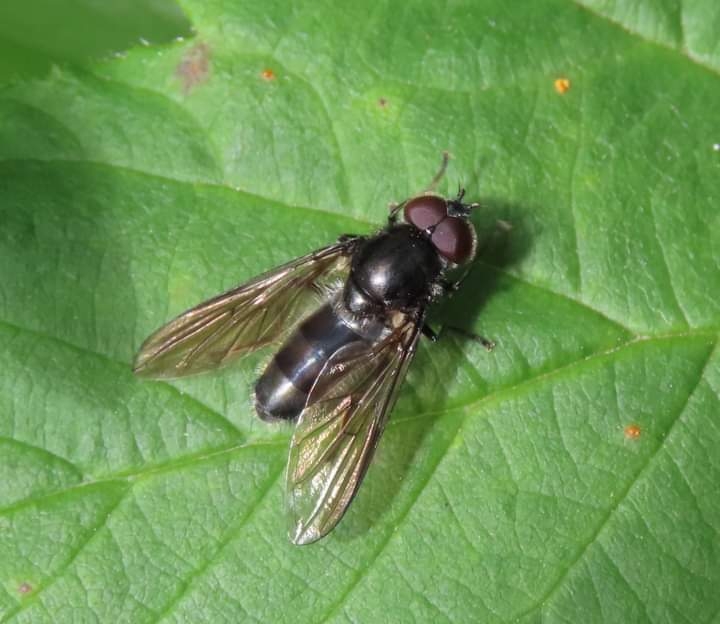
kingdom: Animalia
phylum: Arthropoda
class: Insecta
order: Diptera
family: Syrphidae
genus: Cheilosia
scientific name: Cheilosia variabilis
